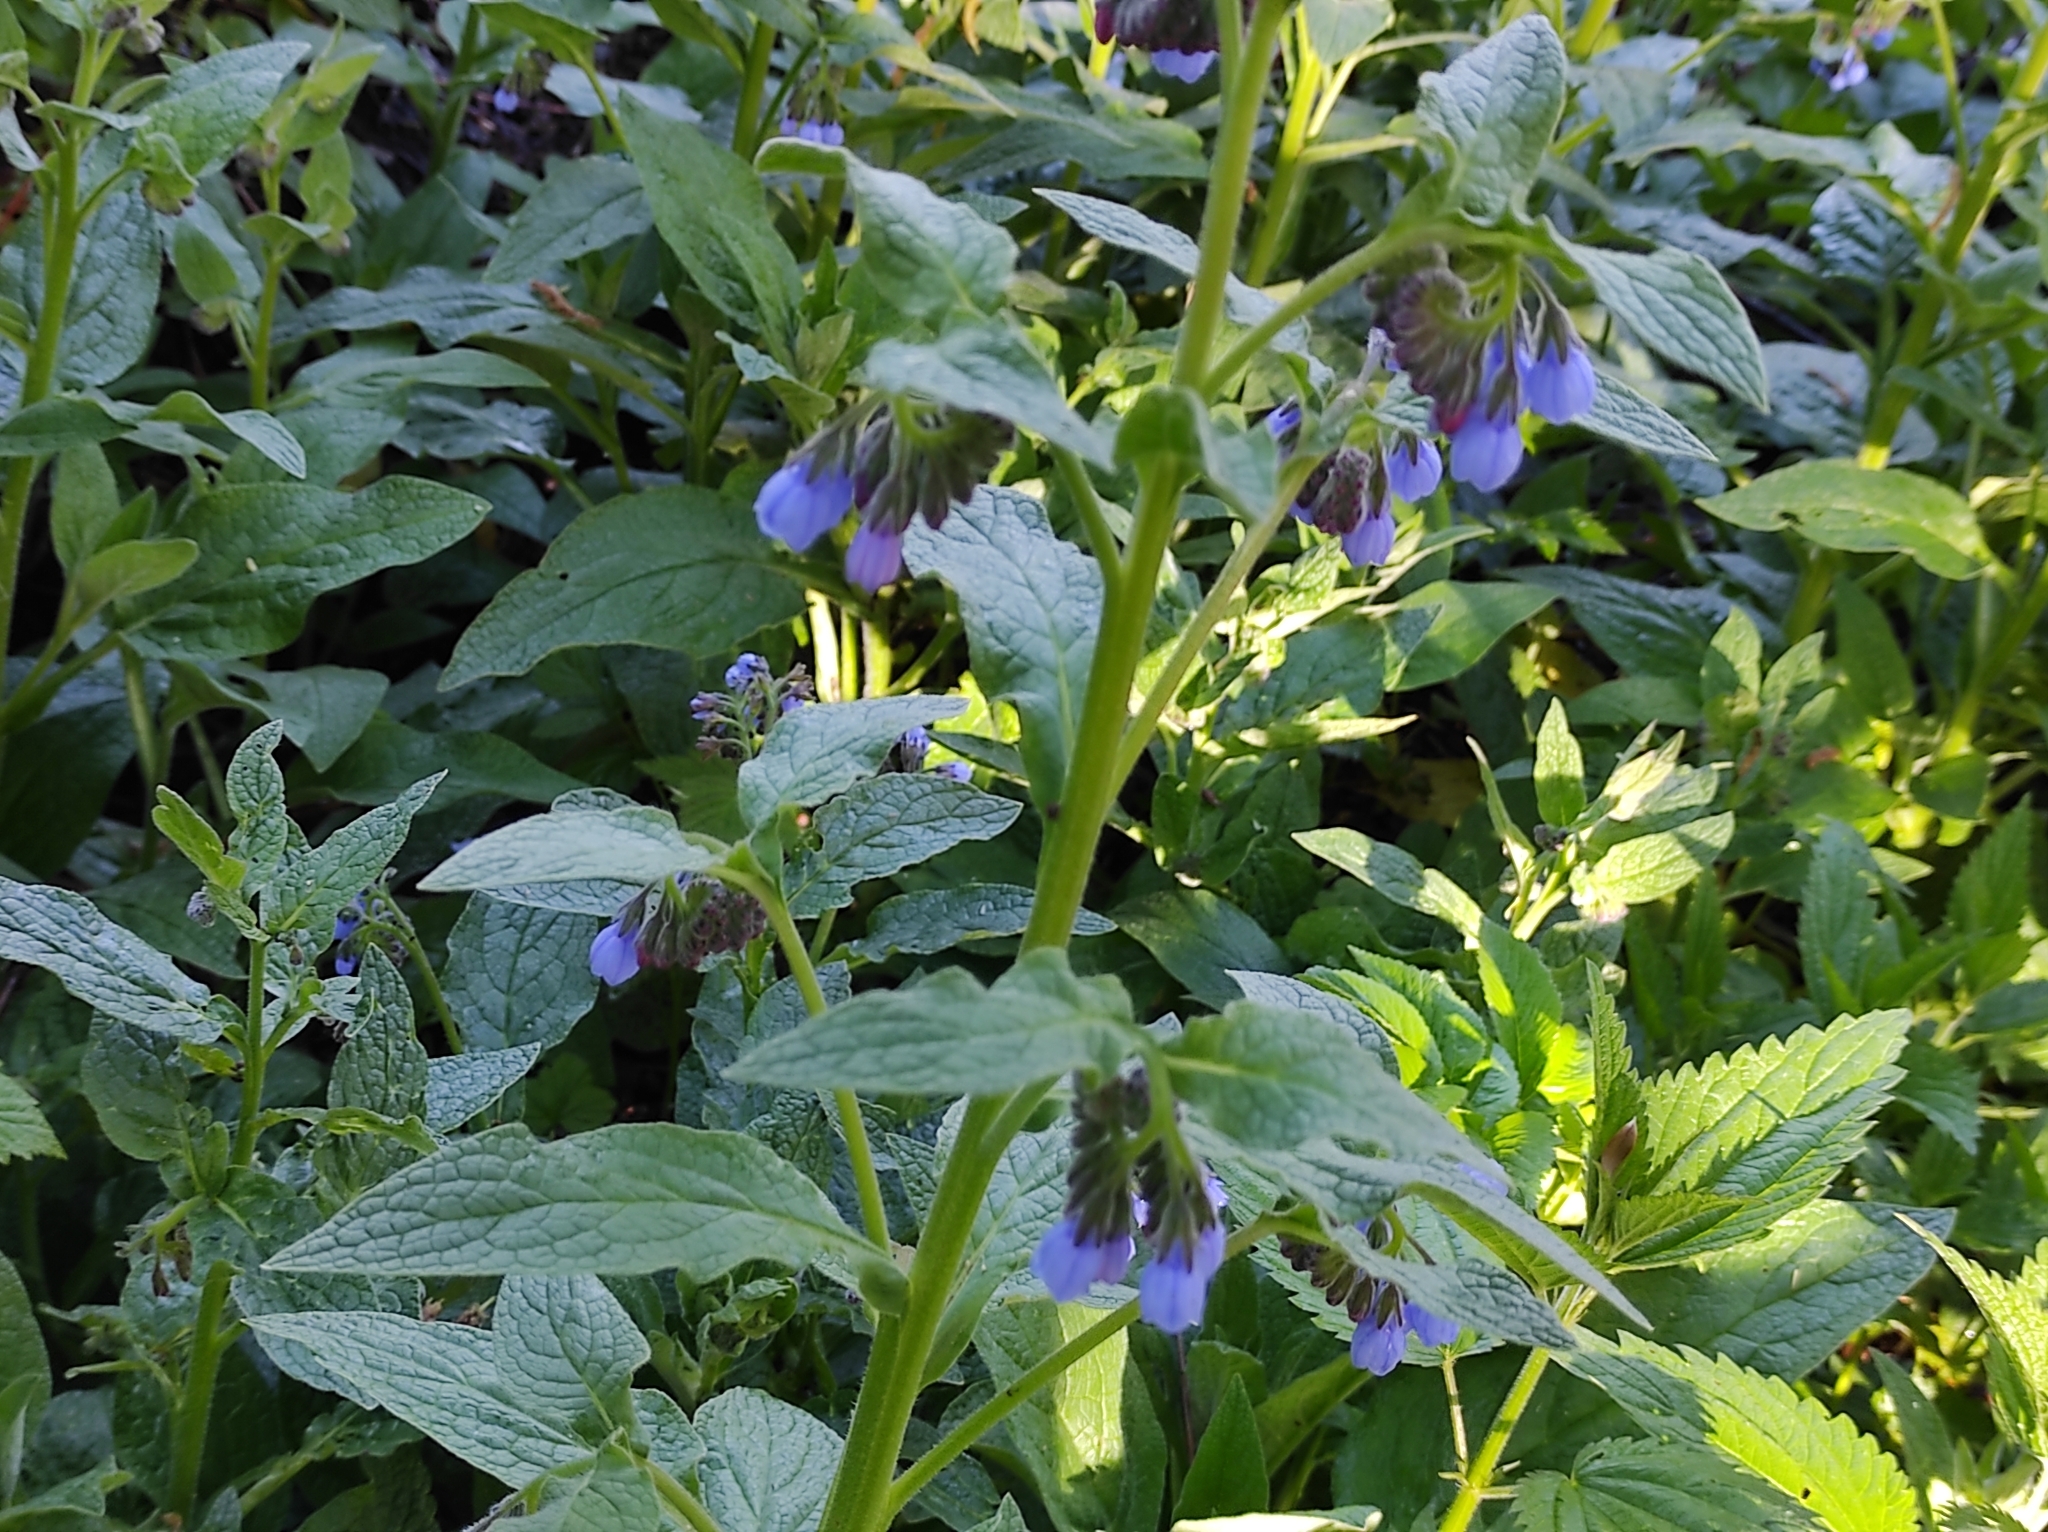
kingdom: Plantae
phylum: Tracheophyta
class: Magnoliopsida
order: Boraginales
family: Boraginaceae
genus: Symphytum
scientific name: Symphytum caucasicum
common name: Caucasian comfrey
